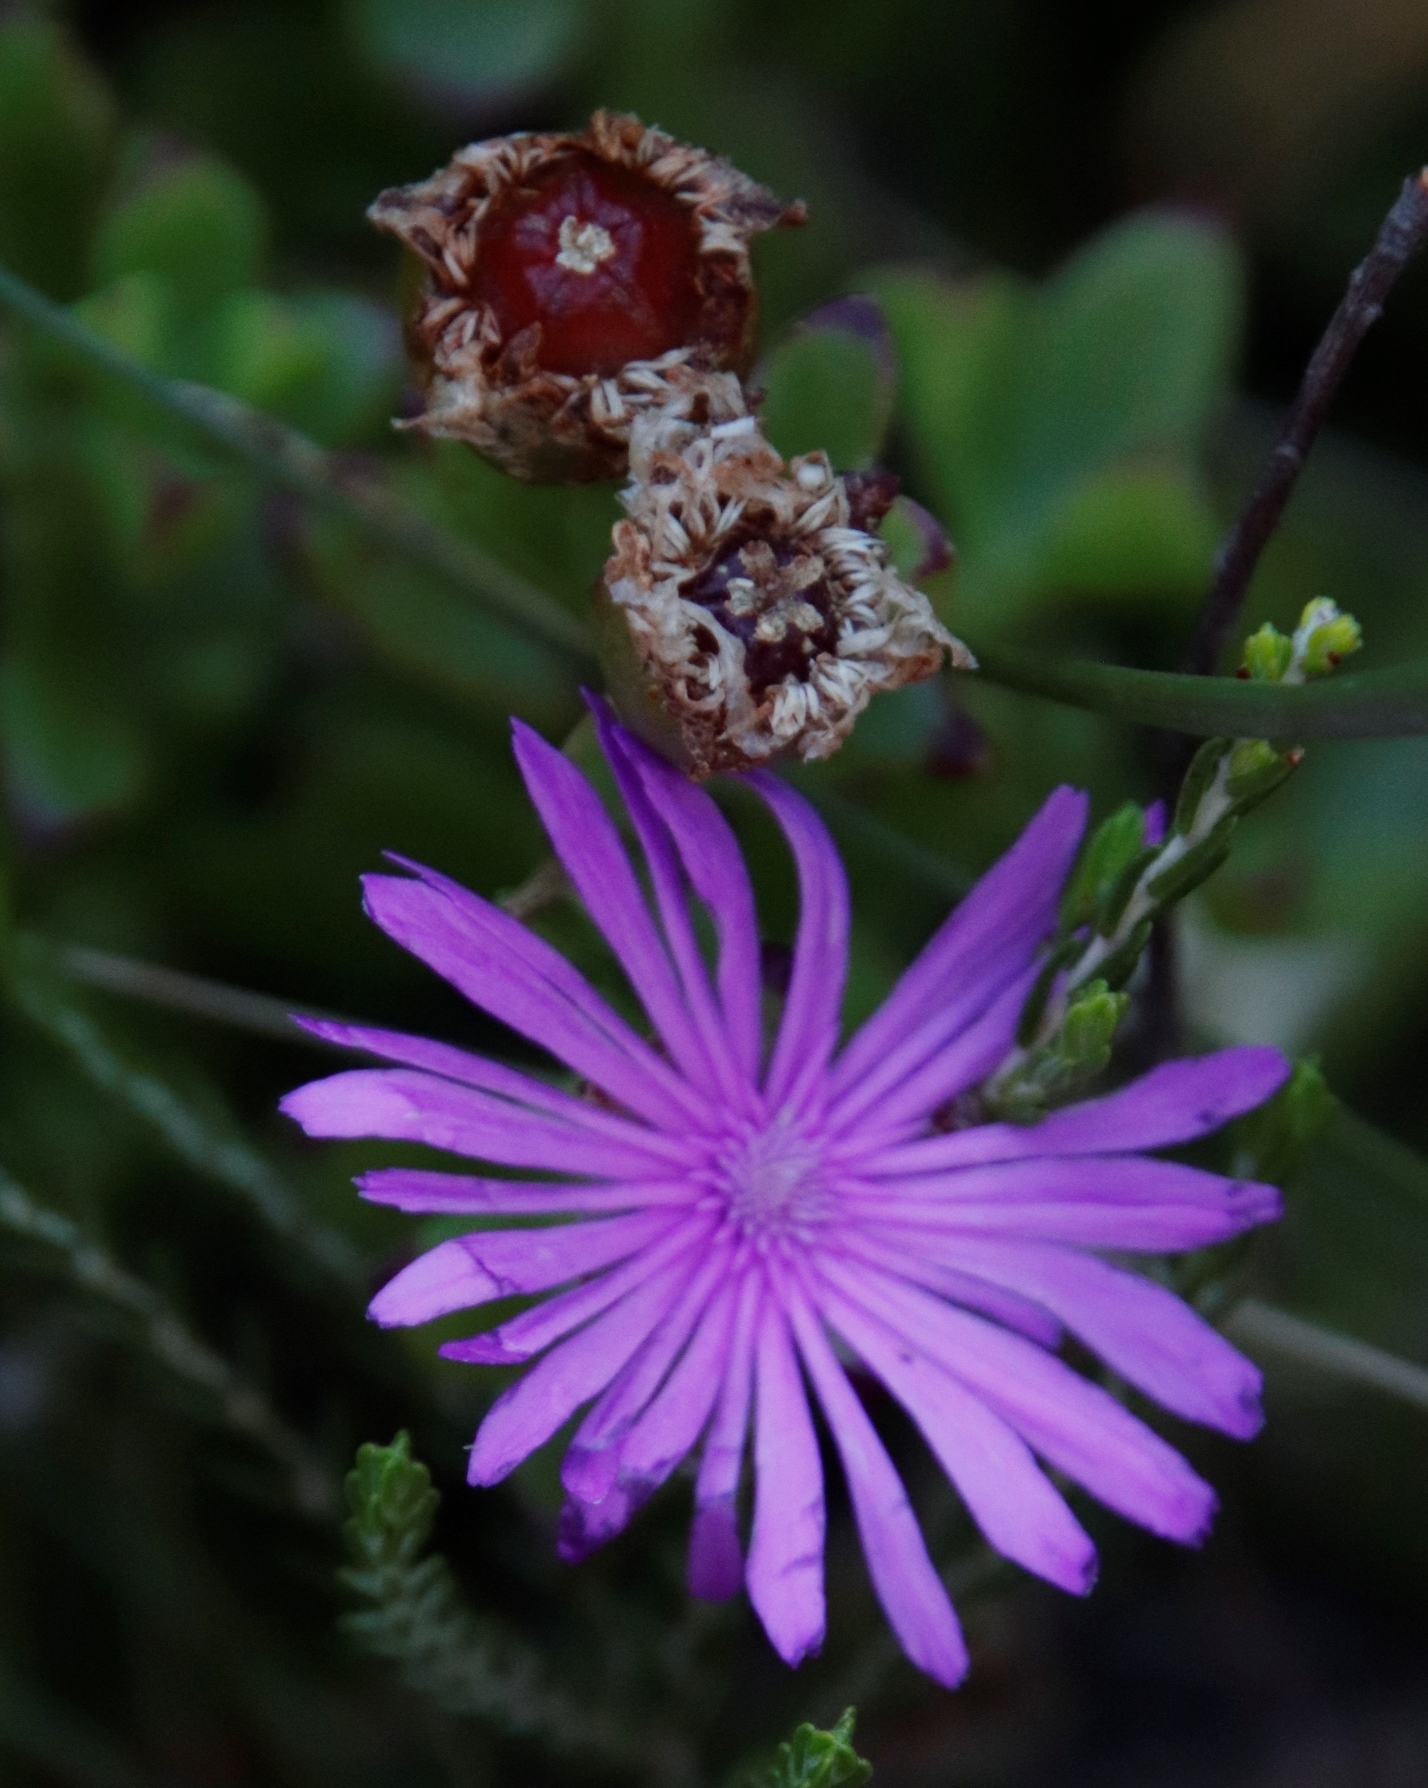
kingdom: Plantae
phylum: Tracheophyta
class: Magnoliopsida
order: Caryophyllales
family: Aizoaceae
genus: Erepsia
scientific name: Erepsia inclaudens
